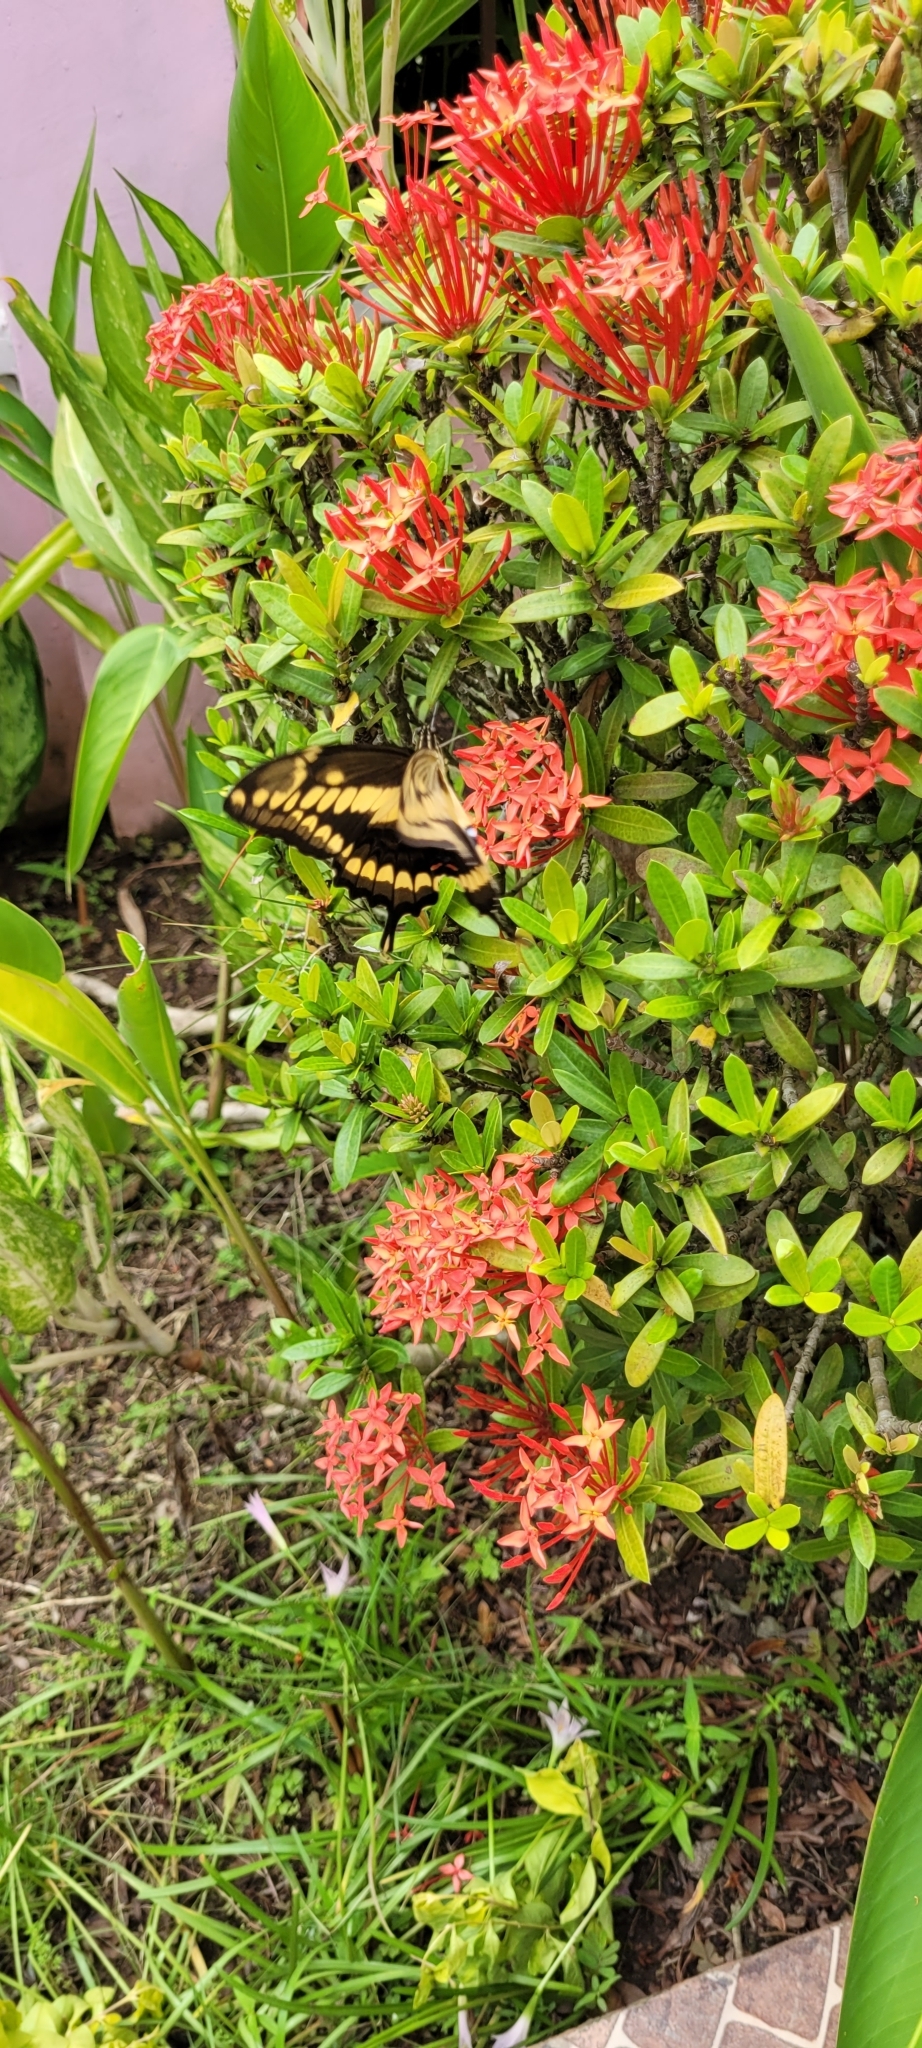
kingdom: Animalia
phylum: Arthropoda
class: Insecta
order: Lepidoptera
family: Papilionidae
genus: Papilio
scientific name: Papilio thoas
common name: King swallowtail
